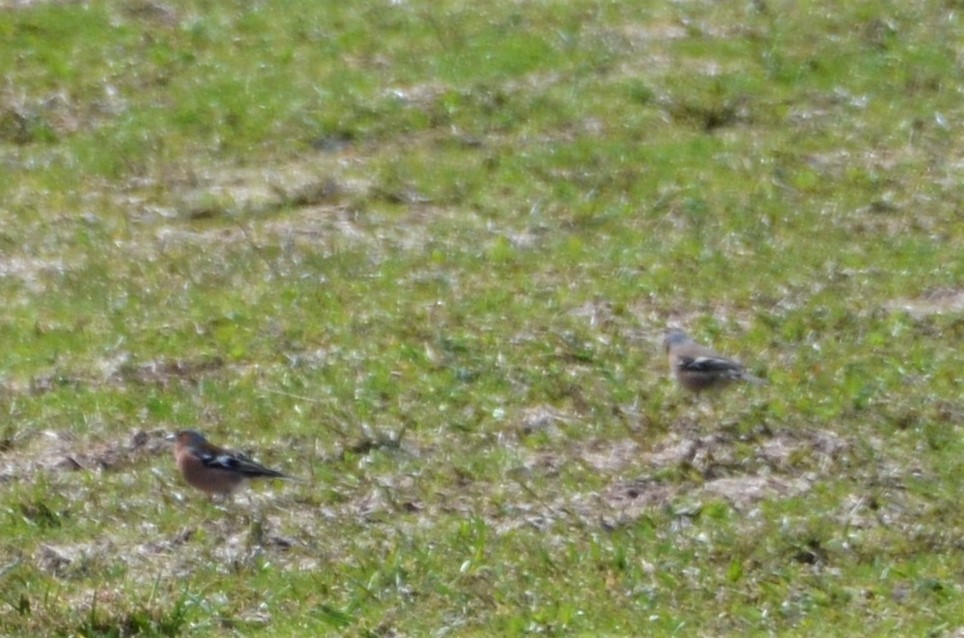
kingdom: Animalia
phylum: Chordata
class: Aves
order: Passeriformes
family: Fringillidae
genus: Fringilla
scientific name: Fringilla coelebs
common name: Common chaffinch
